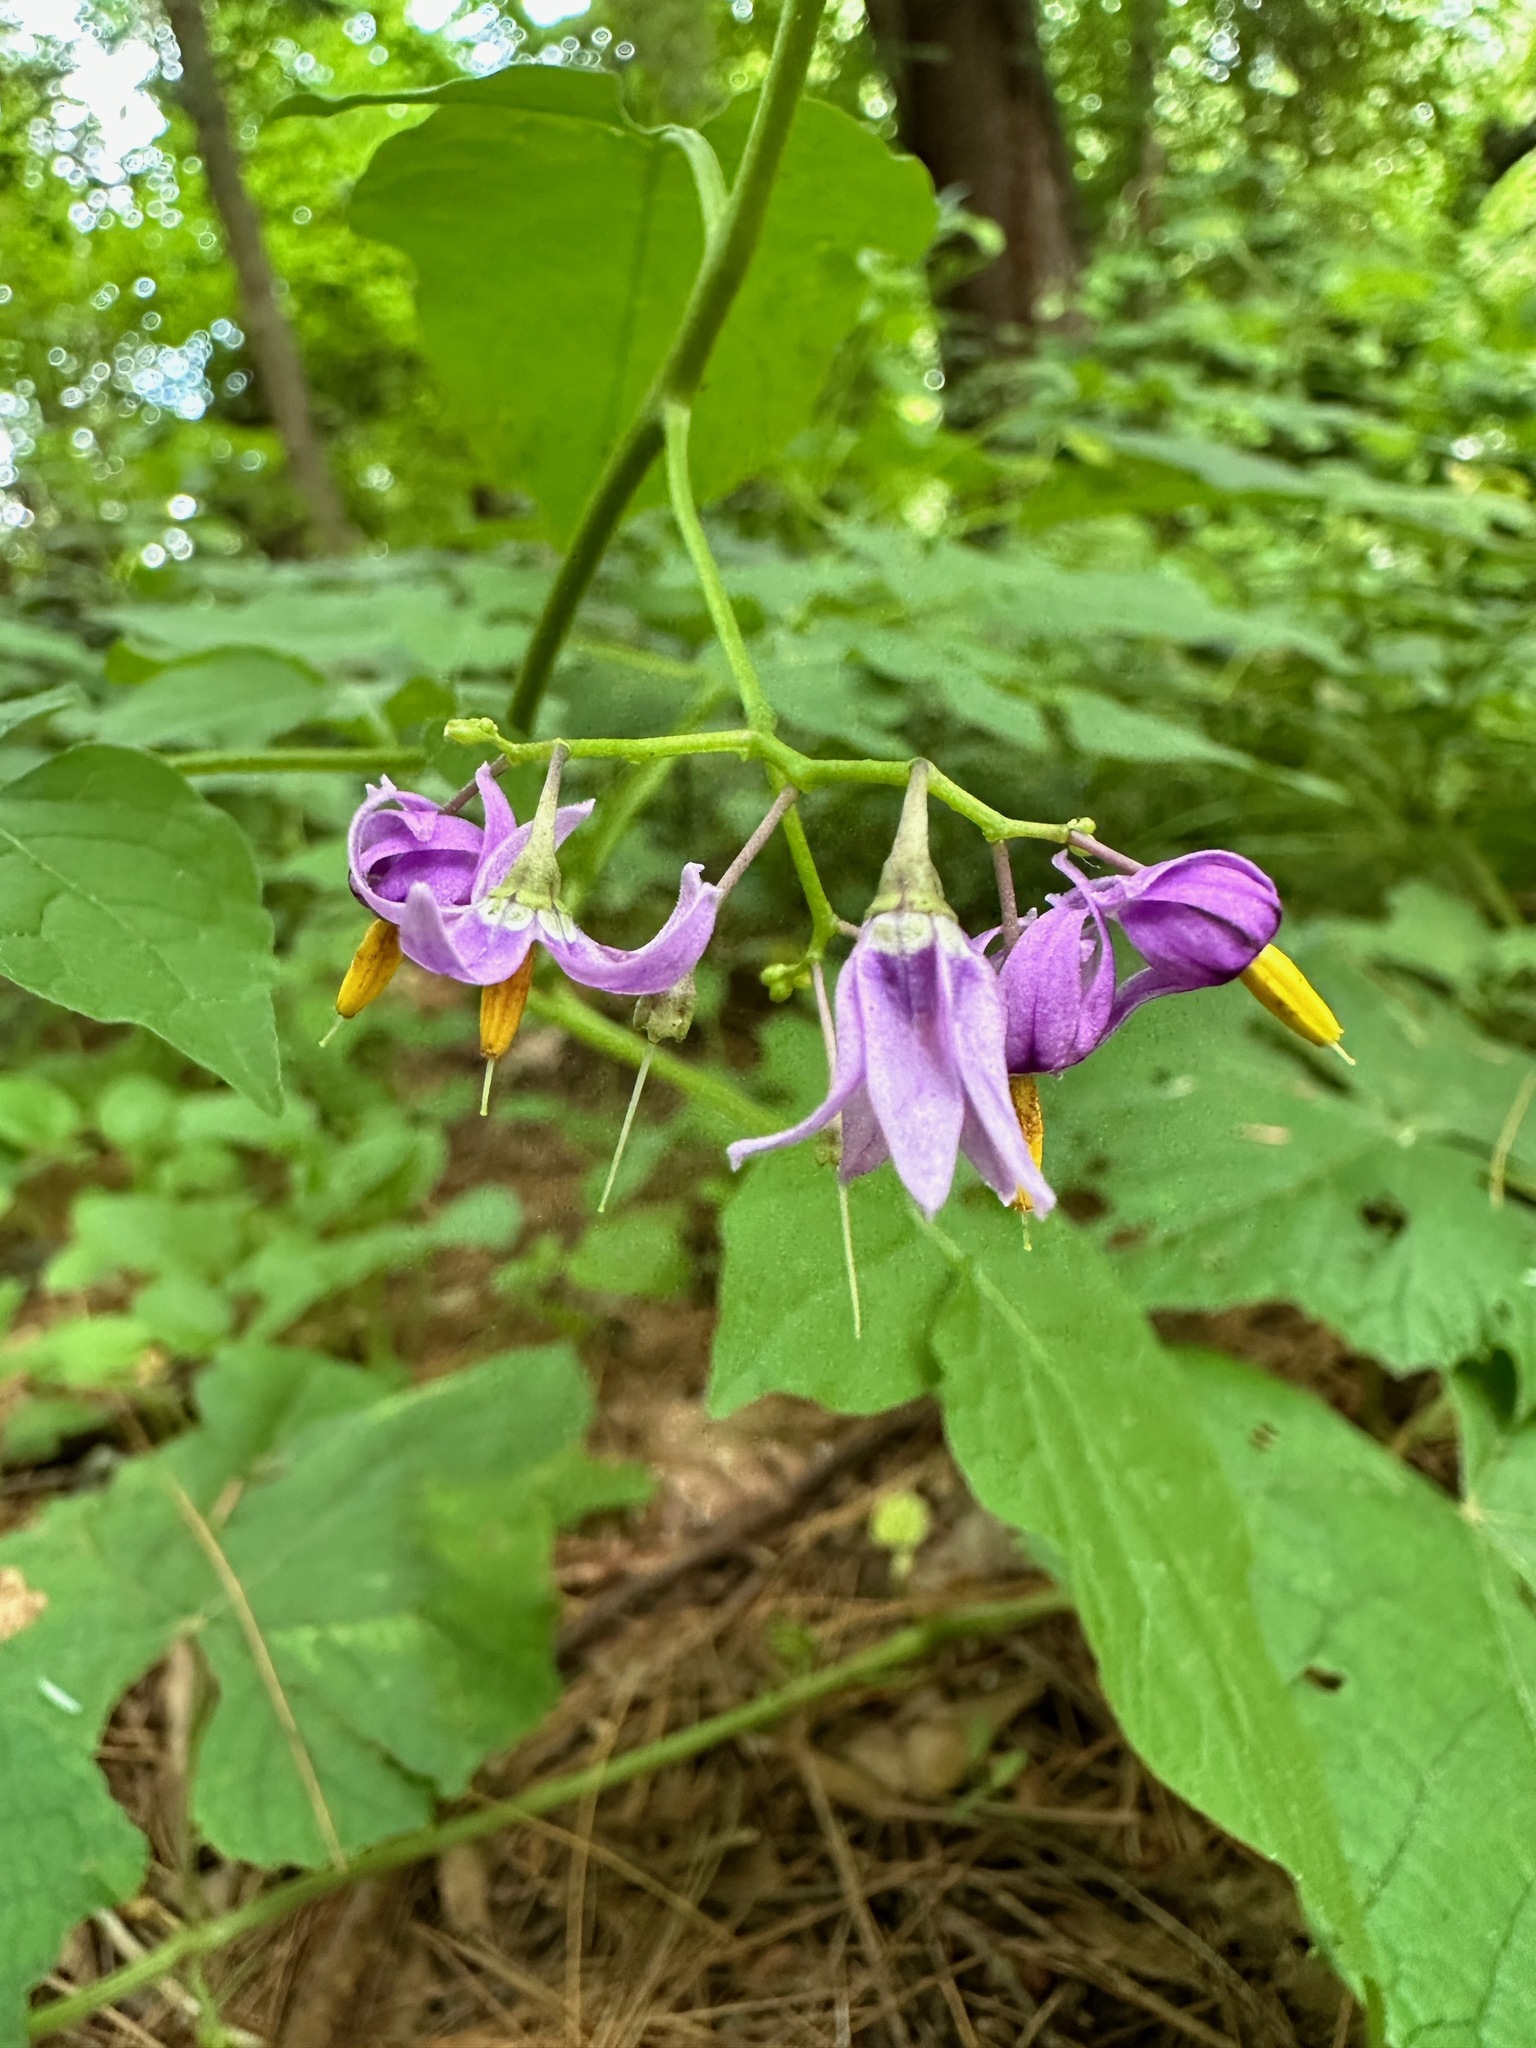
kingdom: Plantae
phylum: Tracheophyta
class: Magnoliopsida
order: Solanales
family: Solanaceae
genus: Solanum
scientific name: Solanum dulcamara
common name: Climbing nightshade
